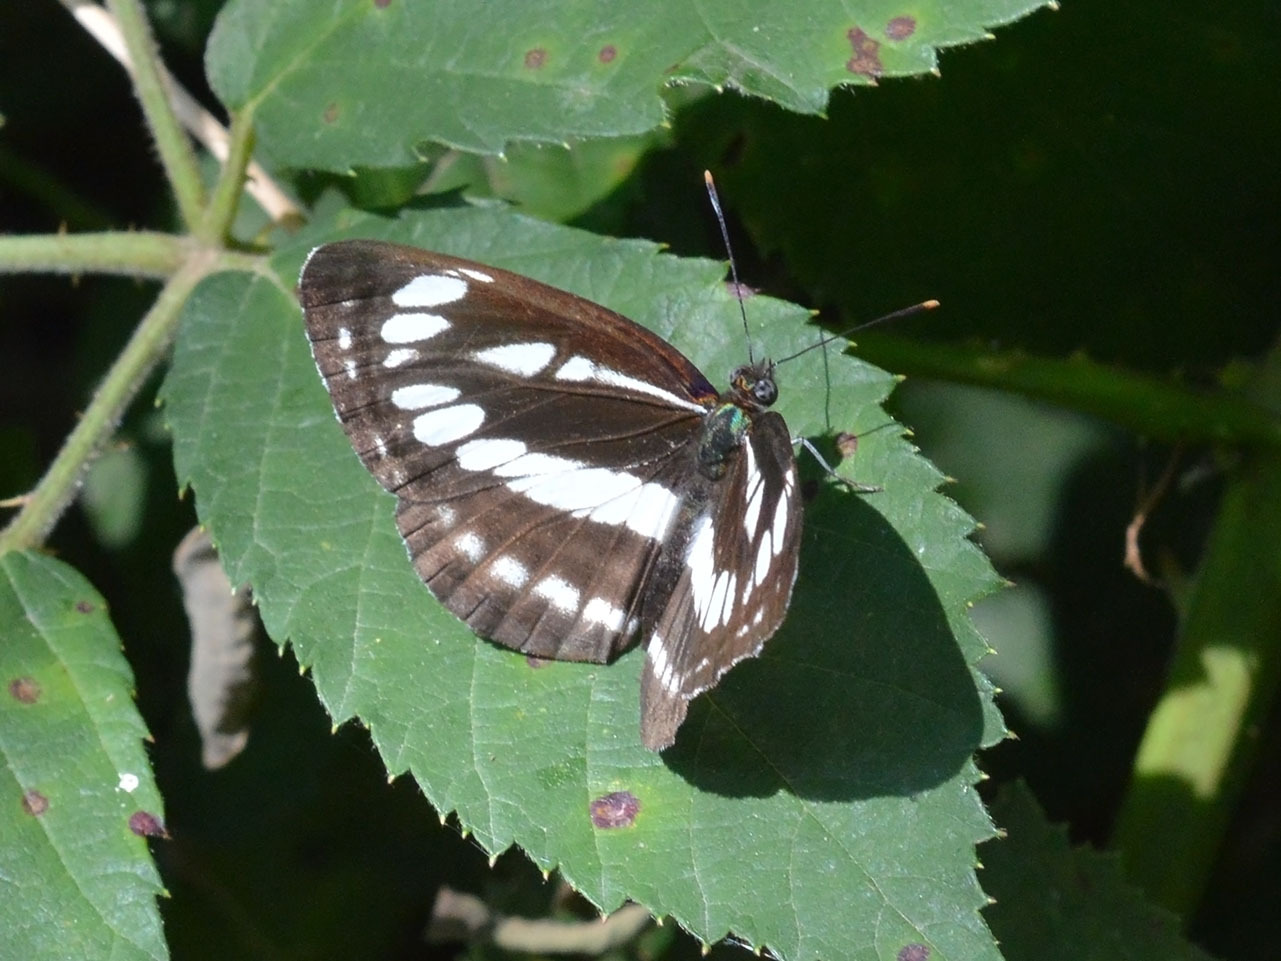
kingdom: Animalia
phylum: Arthropoda
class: Insecta
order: Lepidoptera
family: Nymphalidae
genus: Neptis
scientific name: Neptis sappho
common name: Common glider
